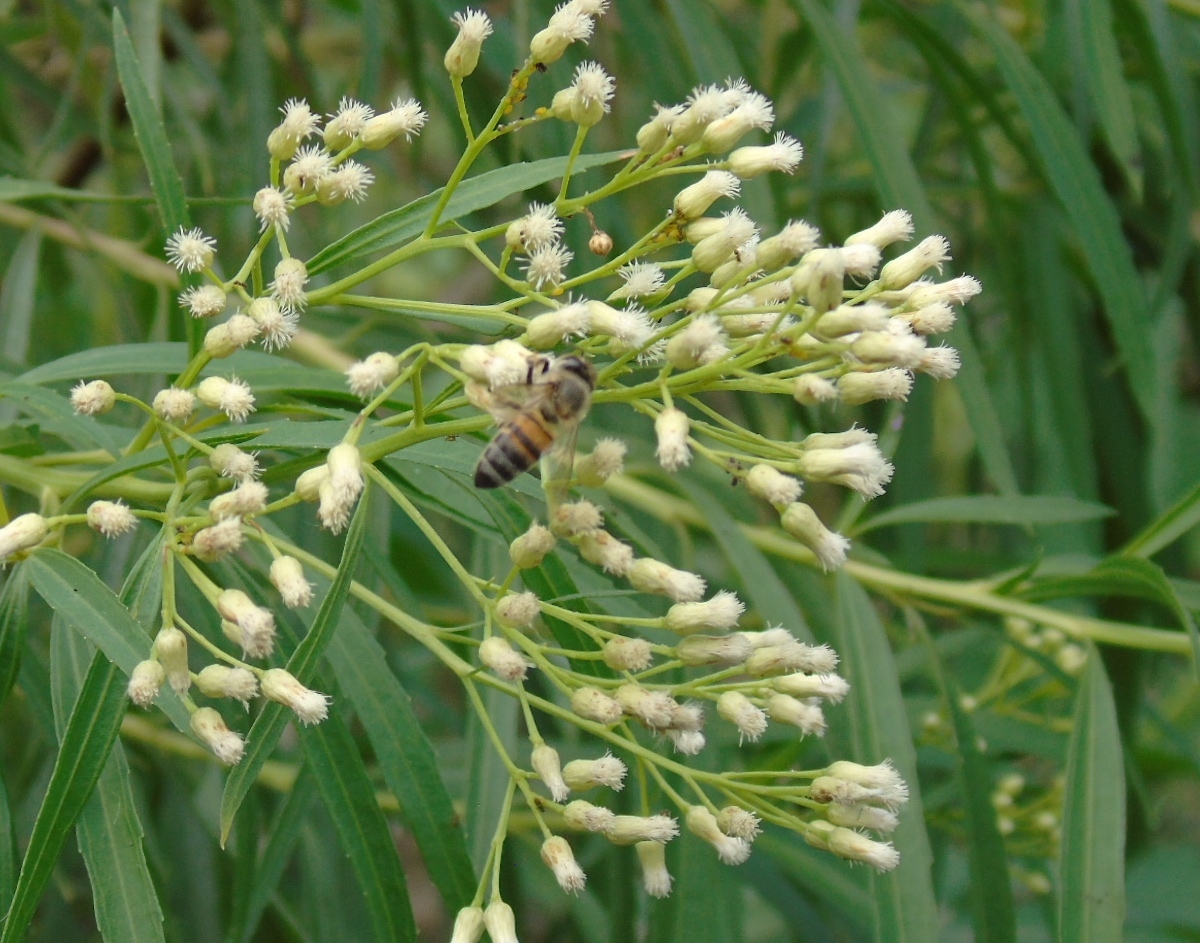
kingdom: Plantae
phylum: Tracheophyta
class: Magnoliopsida
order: Asterales
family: Asteraceae
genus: Baccharis
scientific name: Baccharis salicifolia
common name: Sticky baccharis
